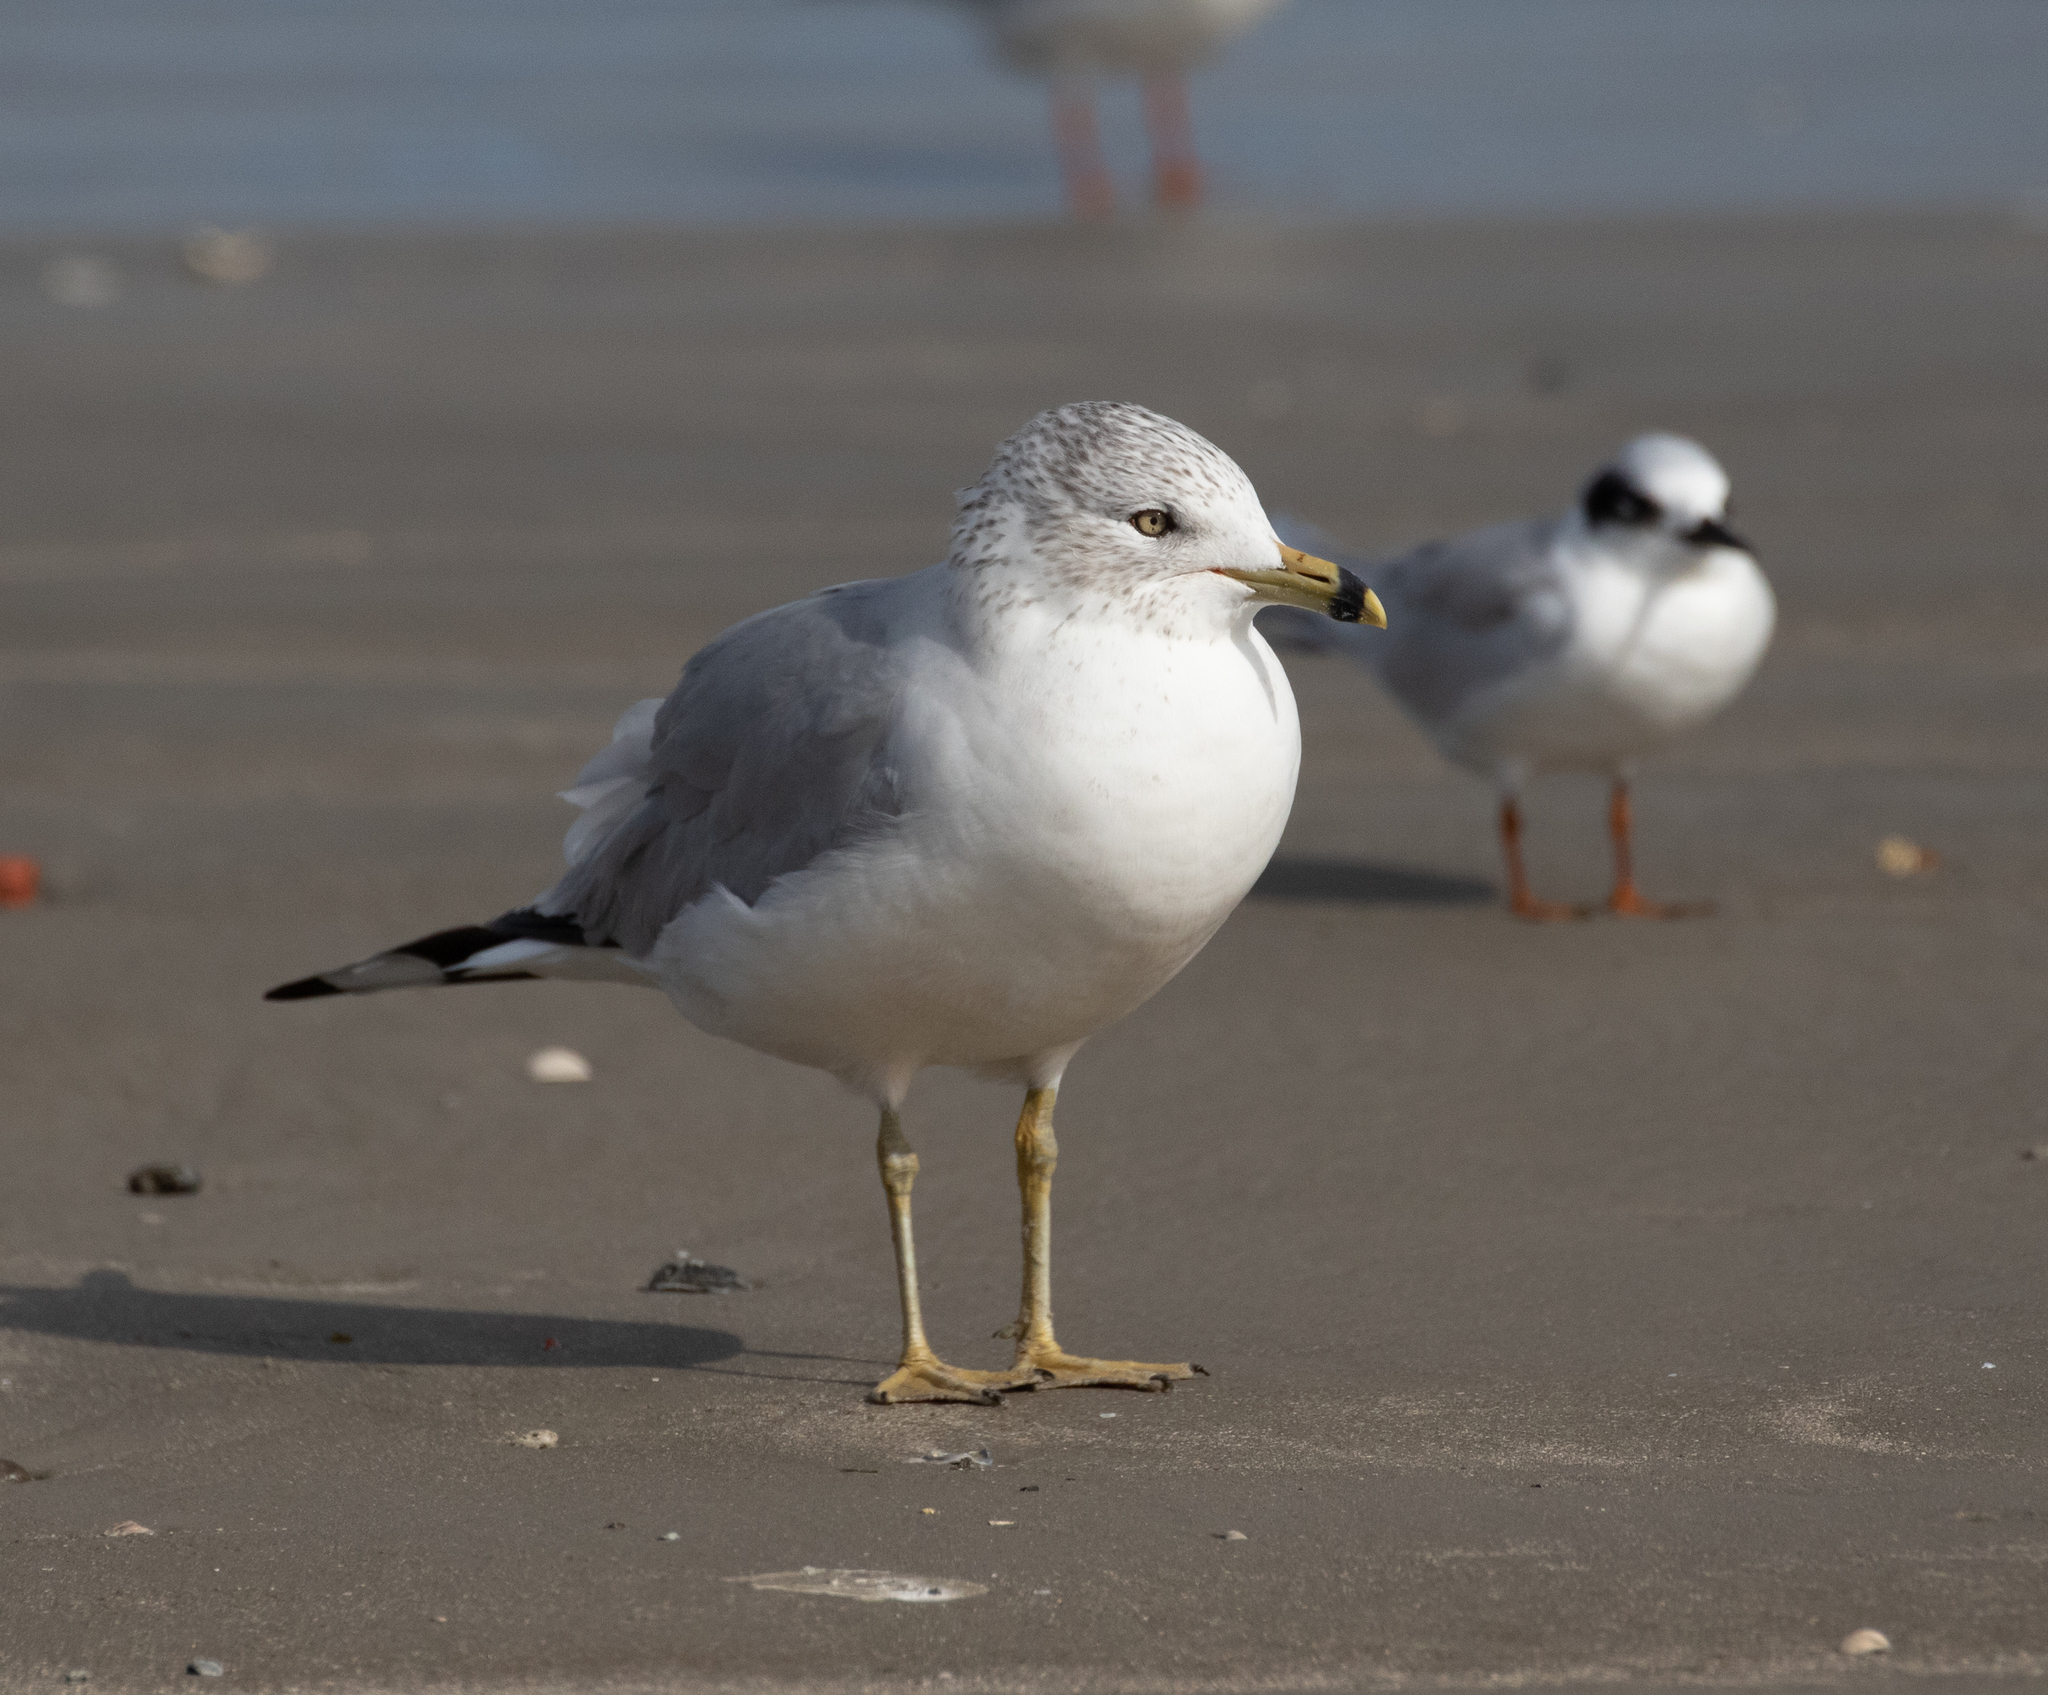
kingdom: Animalia
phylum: Chordata
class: Aves
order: Charadriiformes
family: Laridae
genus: Larus
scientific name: Larus delawarensis
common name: Ring-billed gull
